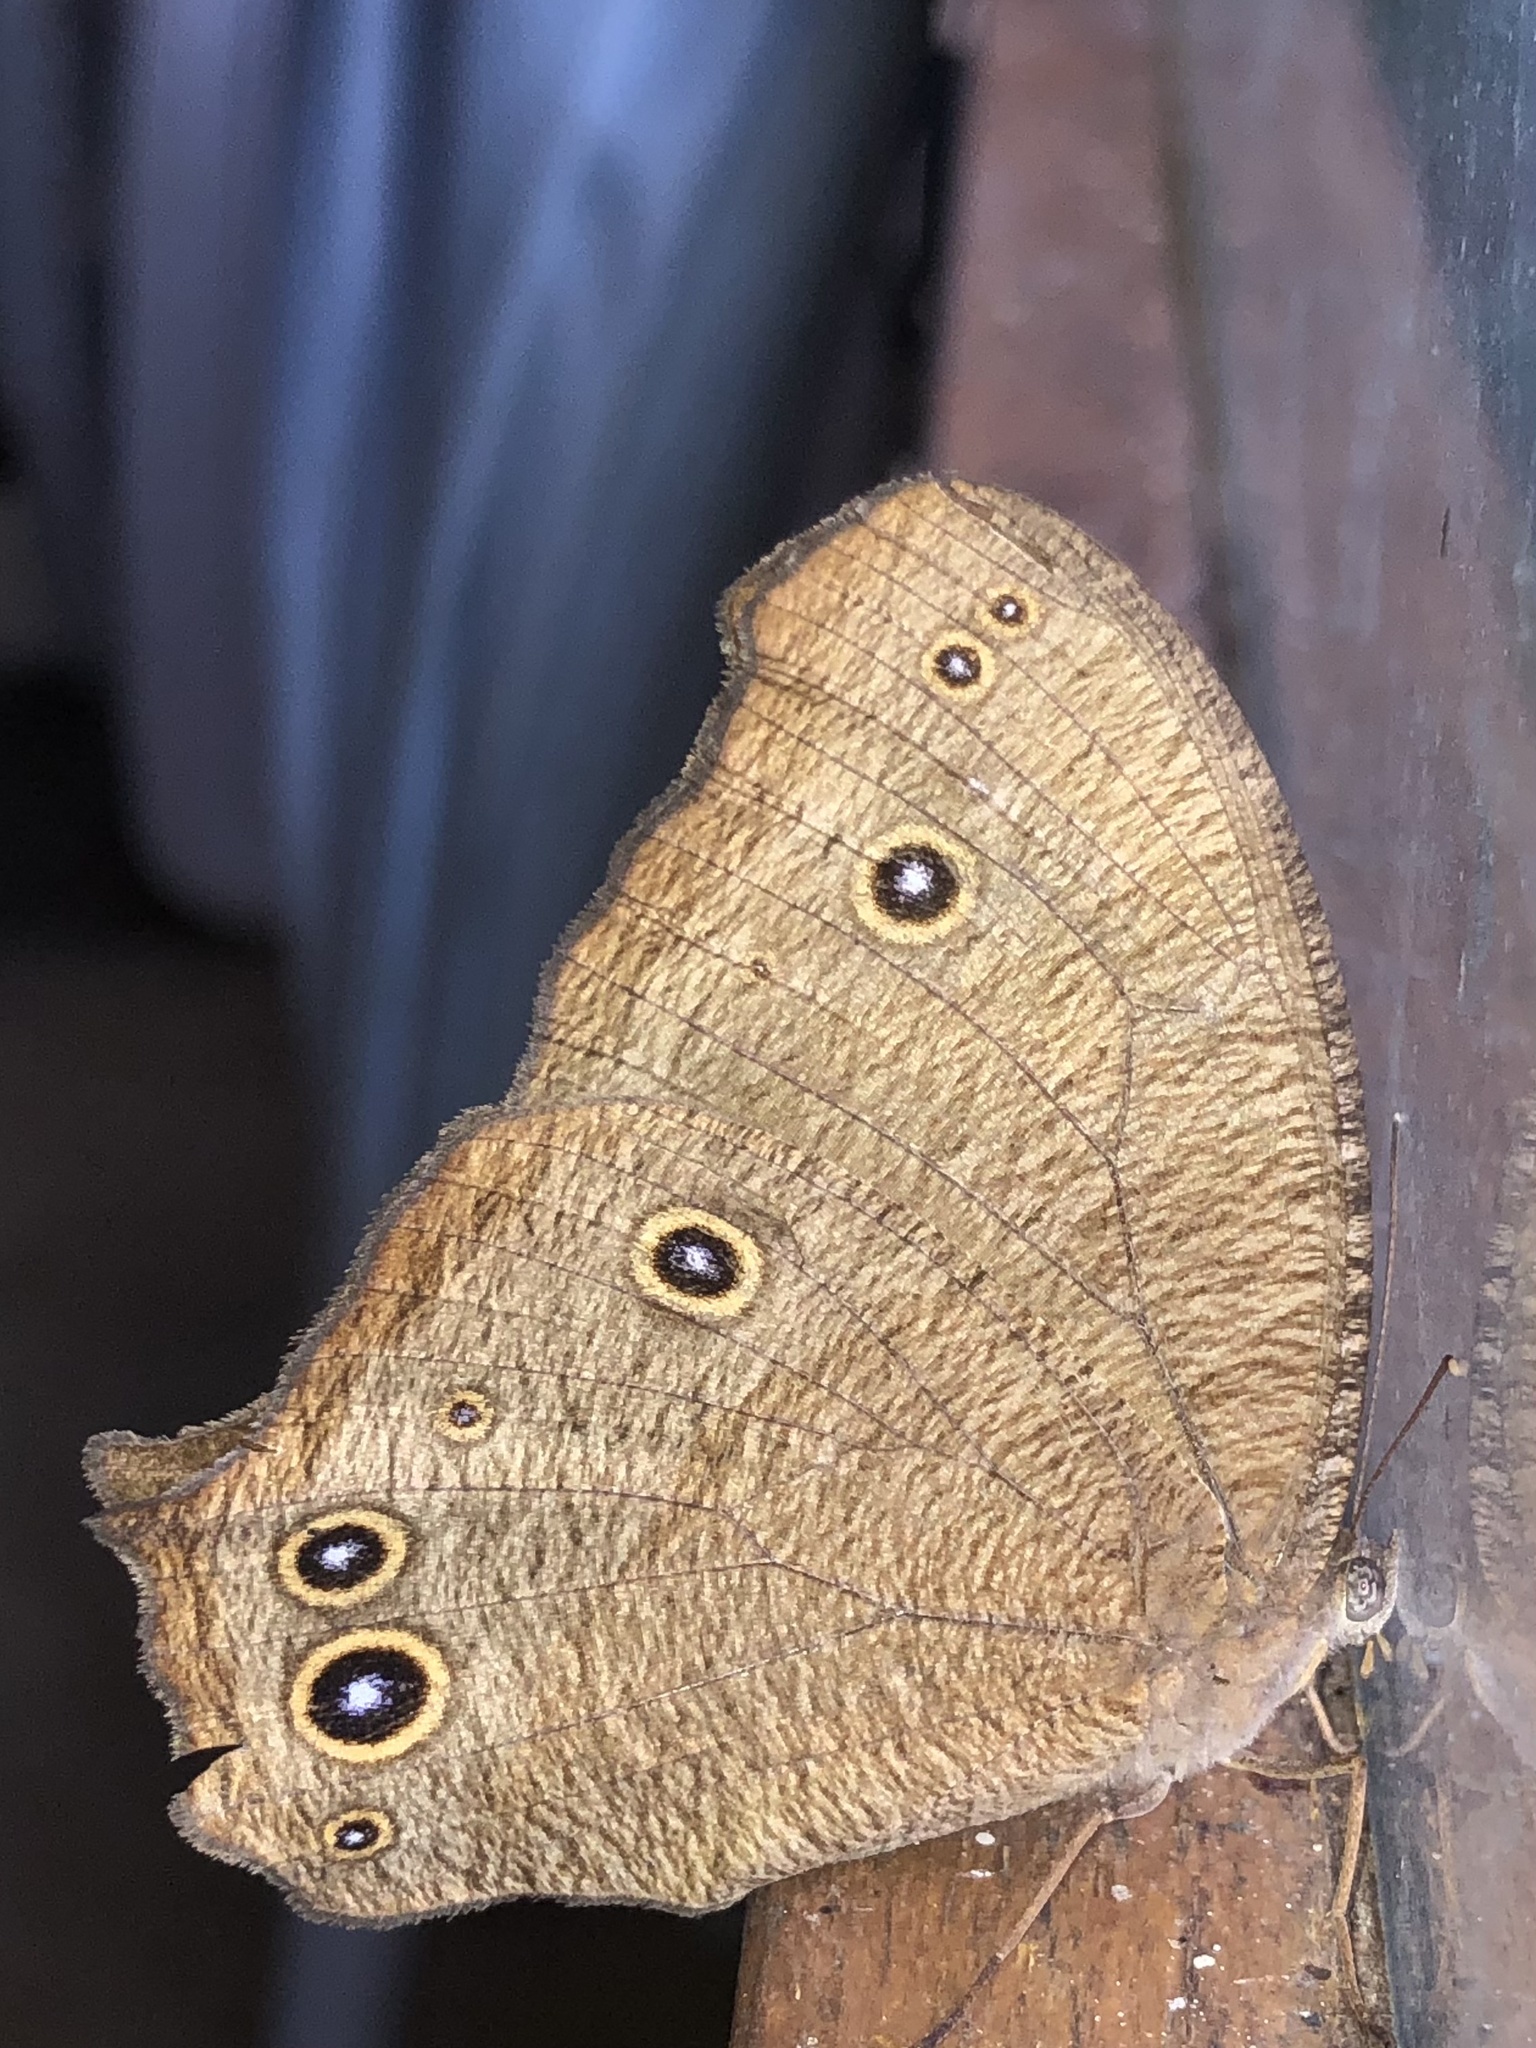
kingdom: Animalia
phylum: Arthropoda
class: Insecta
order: Lepidoptera
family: Nymphalidae
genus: Melanitis
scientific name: Melanitis leda
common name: Twilight brown
